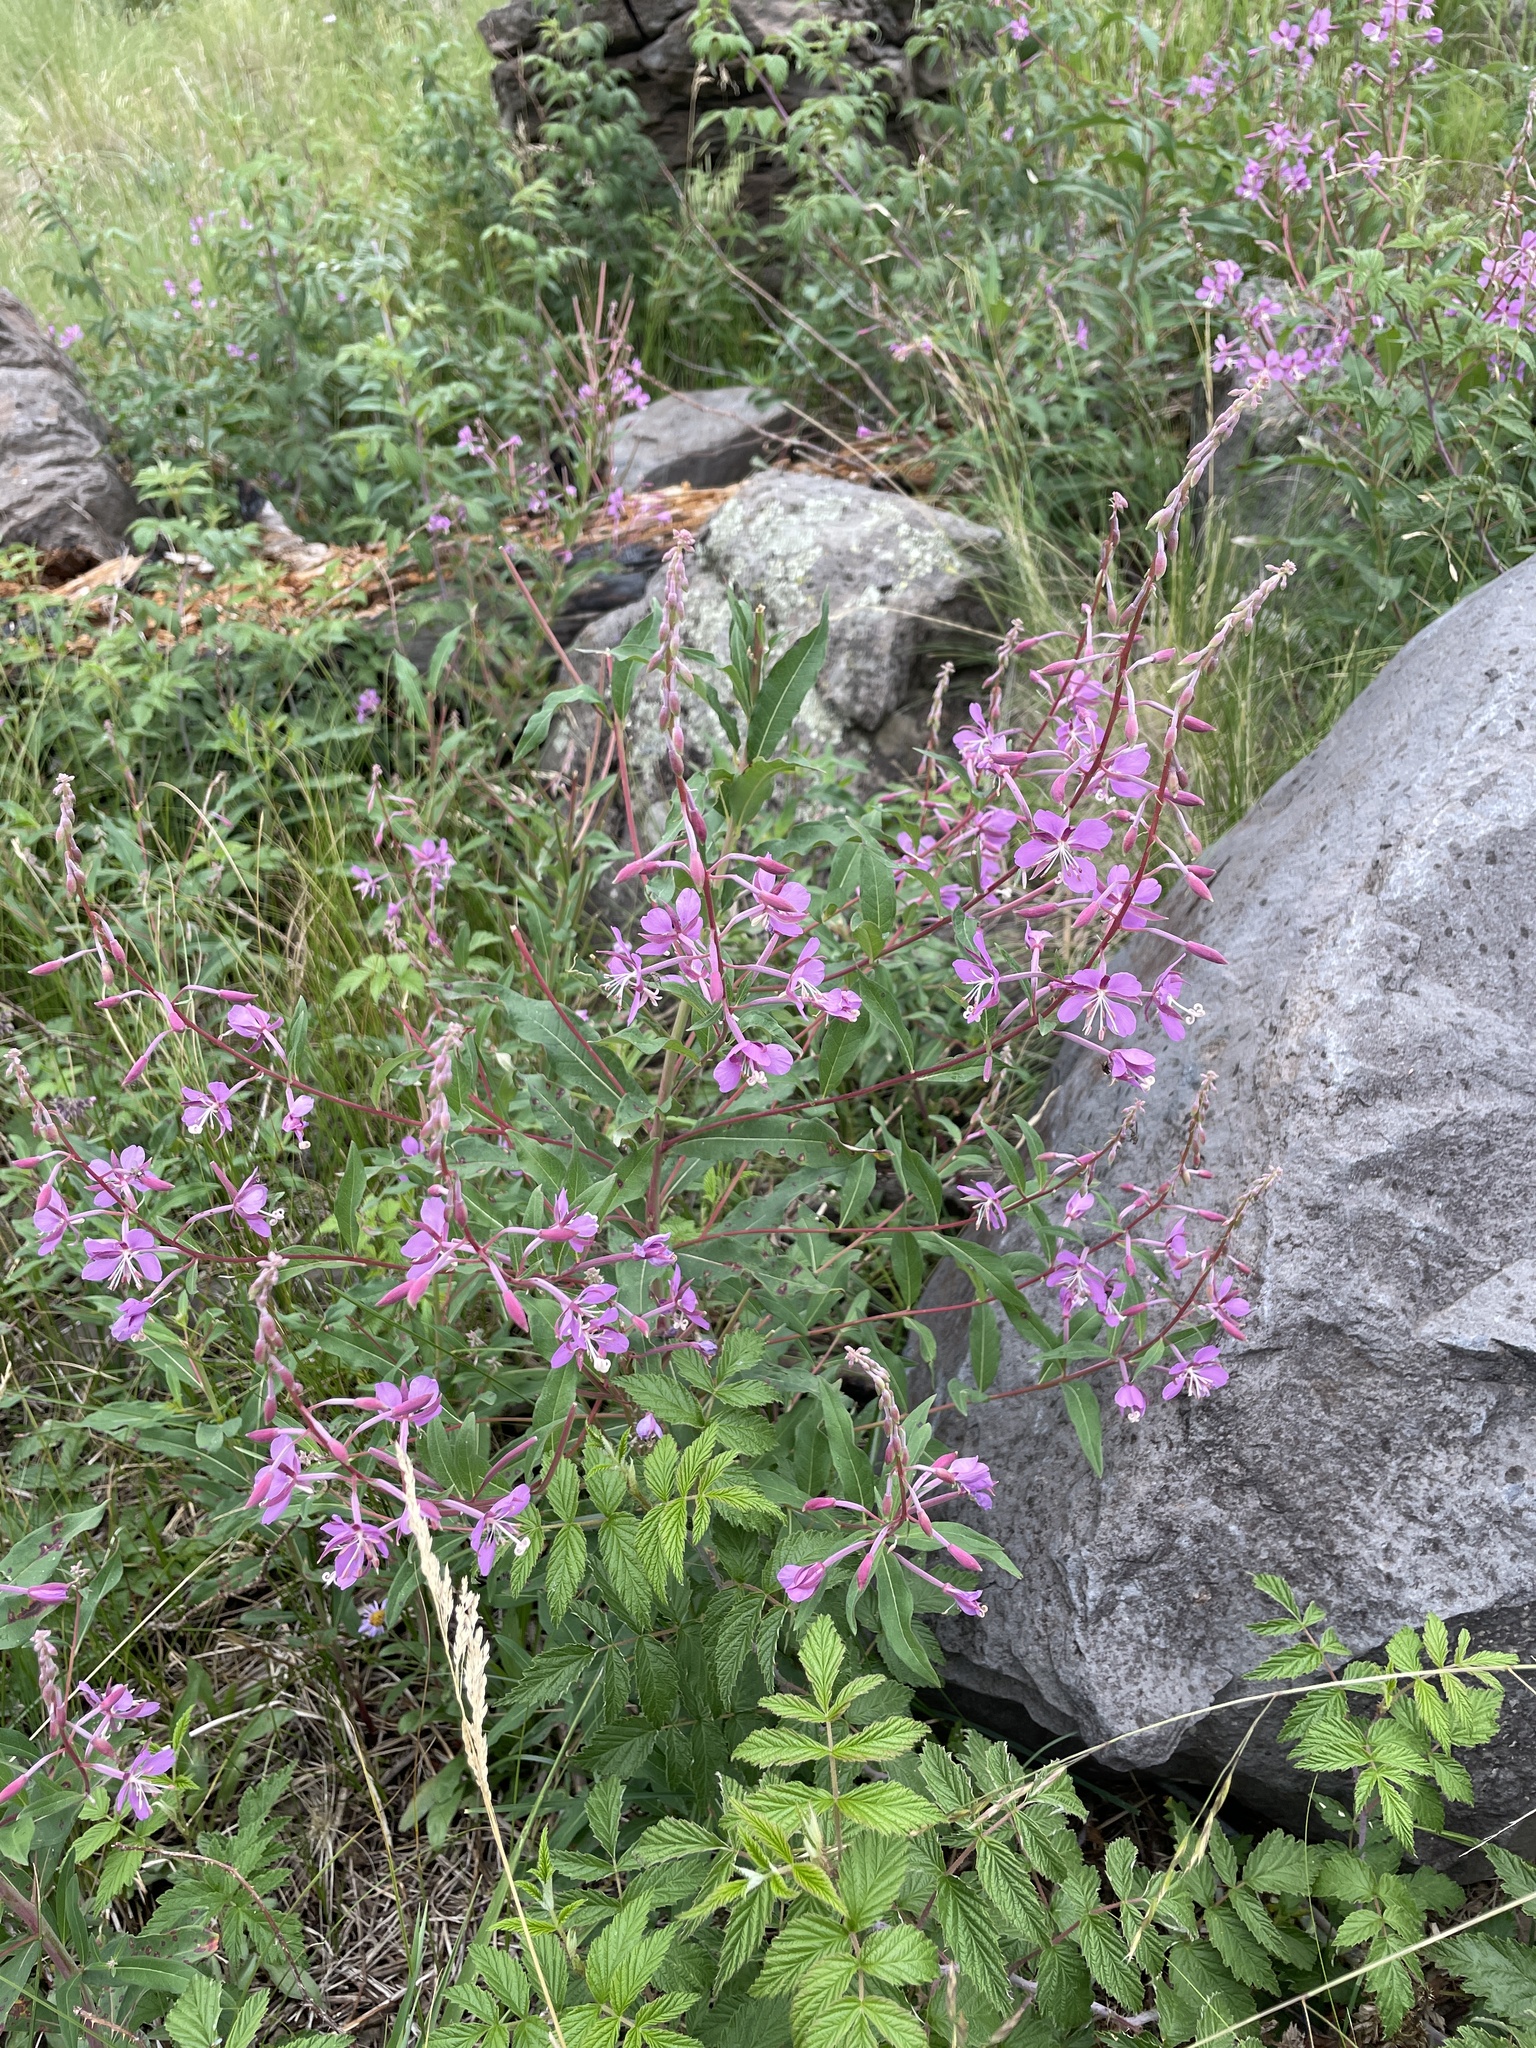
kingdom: Plantae
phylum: Tracheophyta
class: Magnoliopsida
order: Myrtales
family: Onagraceae
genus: Chamaenerion
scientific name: Chamaenerion angustifolium
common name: Fireweed
